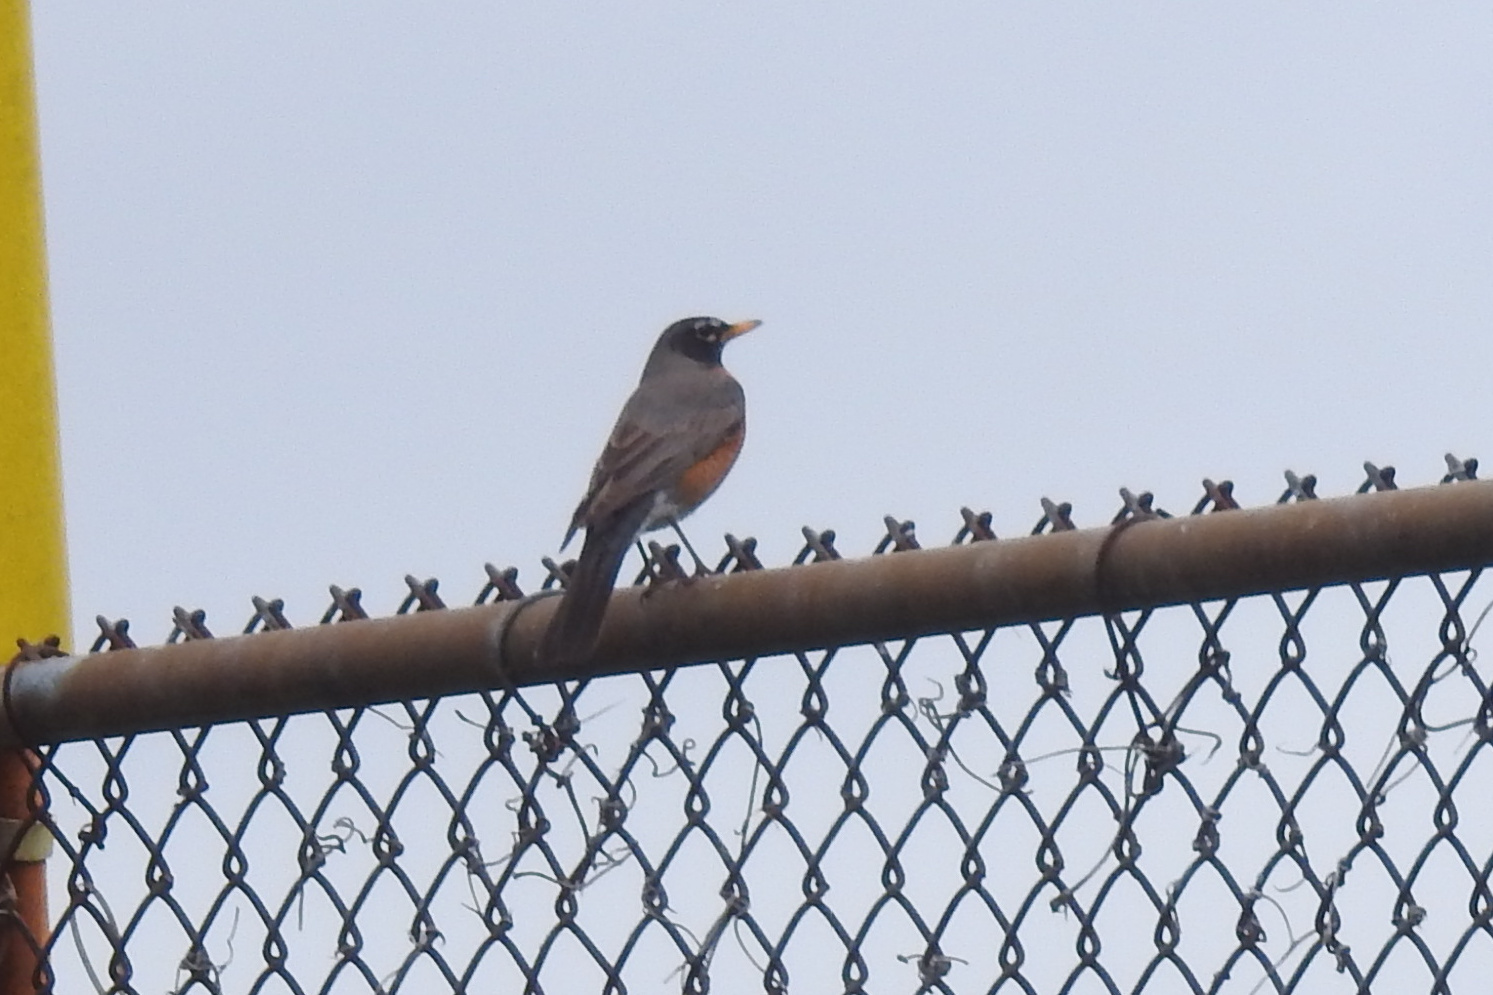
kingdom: Animalia
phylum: Chordata
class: Aves
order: Passeriformes
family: Turdidae
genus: Turdus
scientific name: Turdus migratorius
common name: American robin
